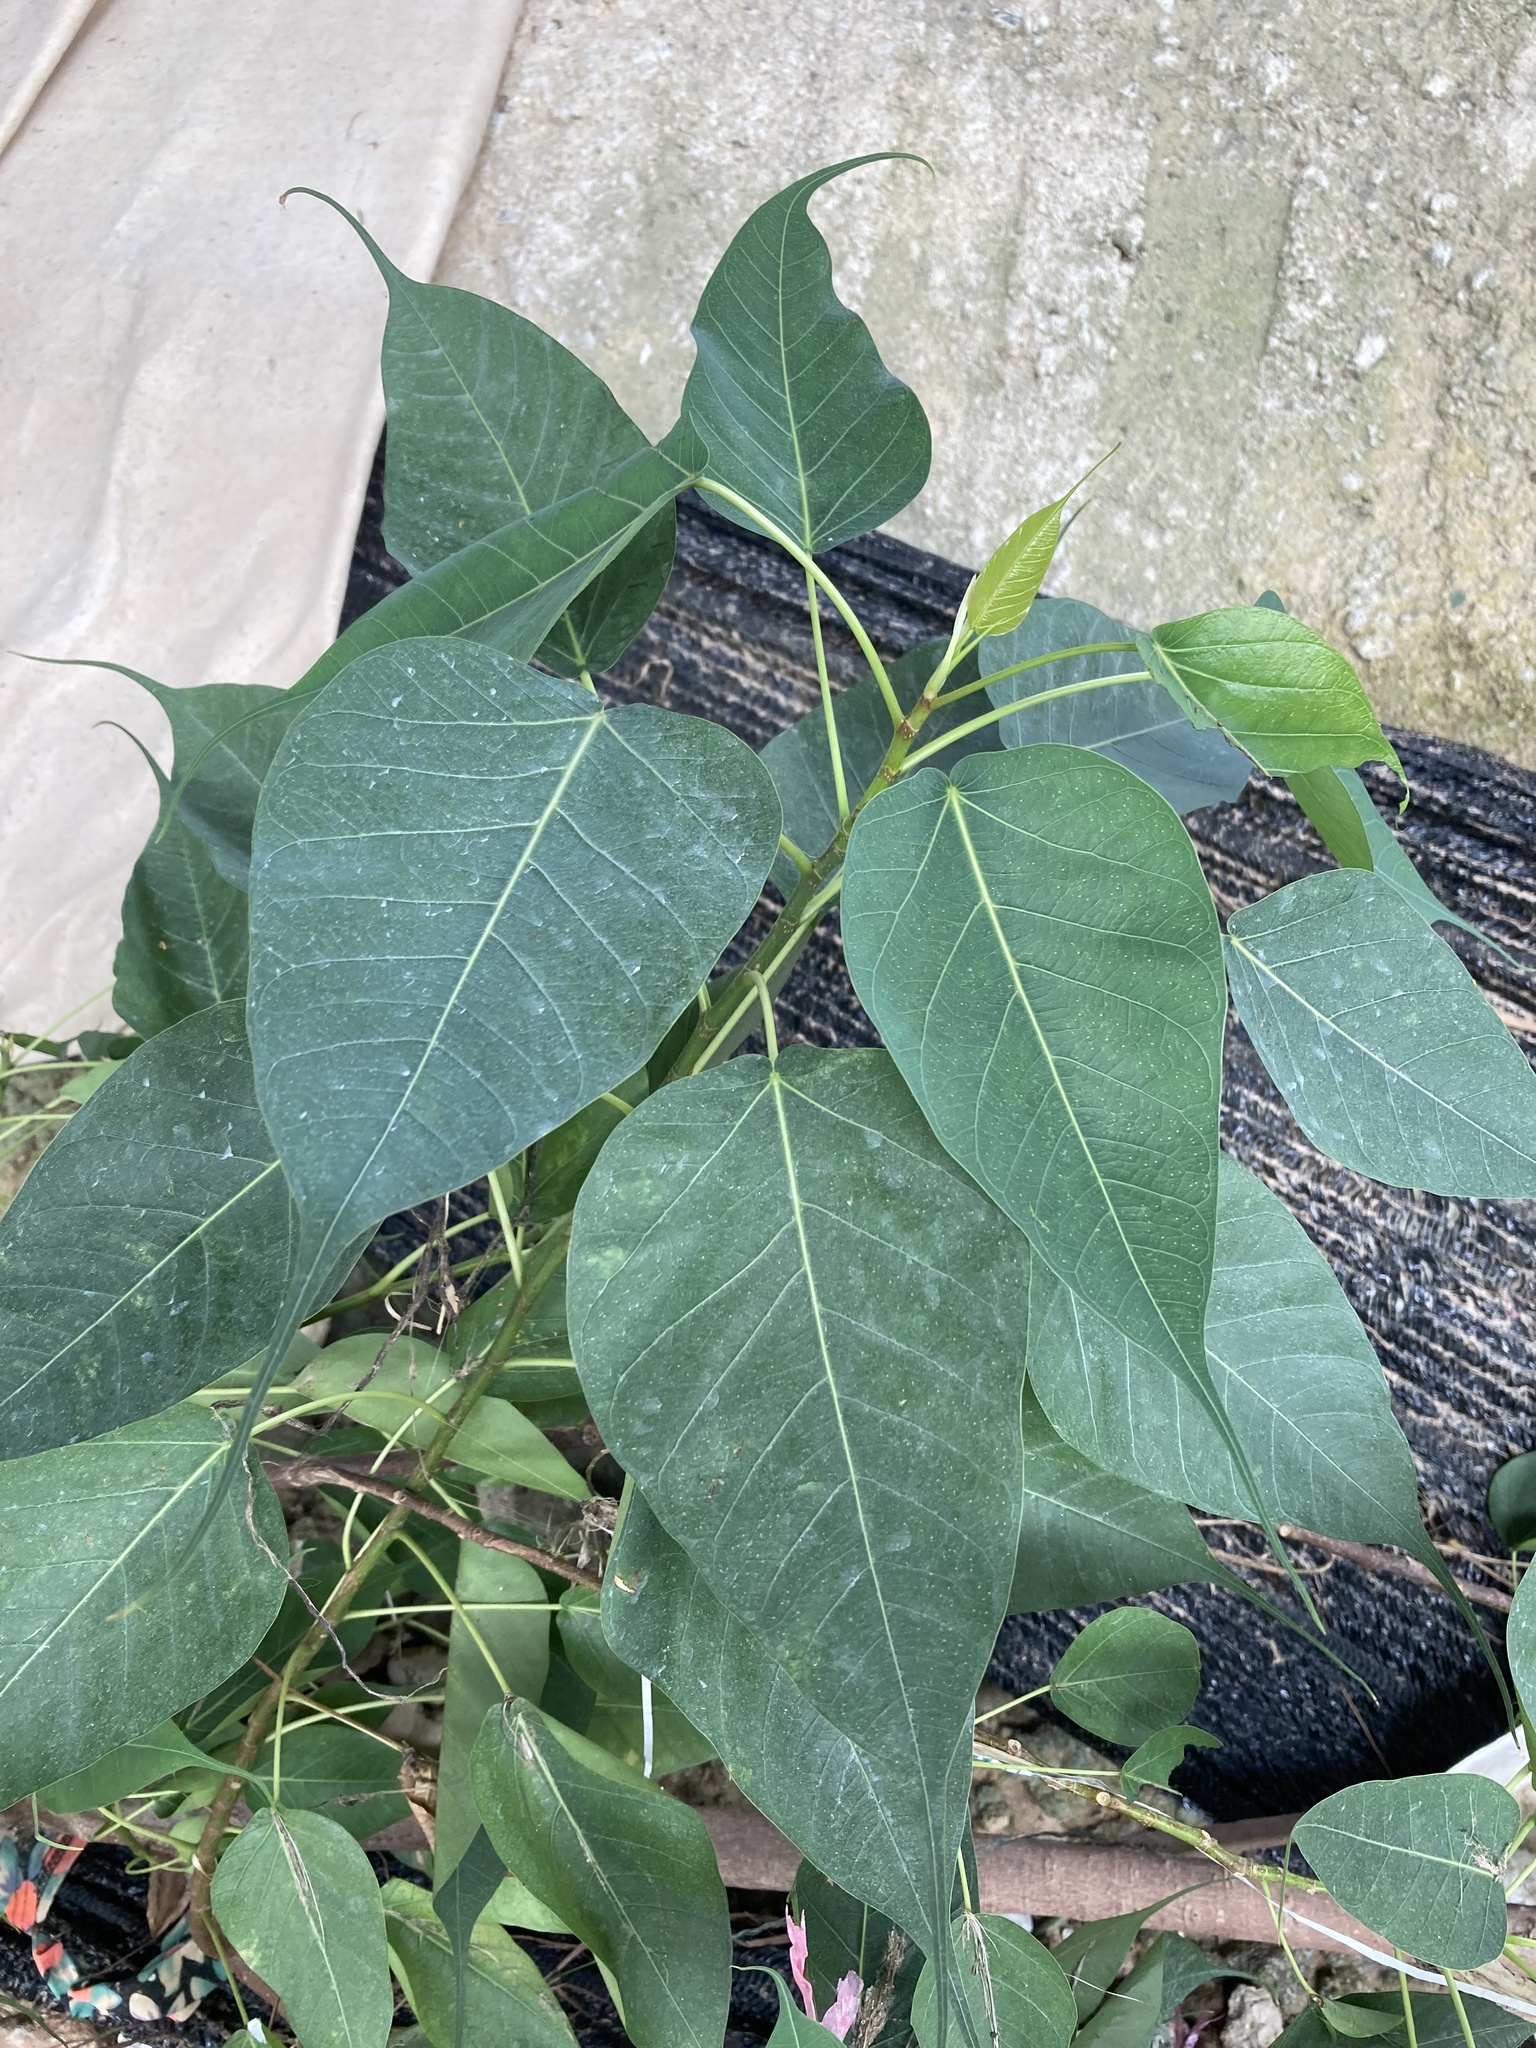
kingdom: Plantae
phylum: Tracheophyta
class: Magnoliopsida
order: Rosales
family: Moraceae
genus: Ficus
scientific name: Ficus religiosa
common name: Bodhi tree
